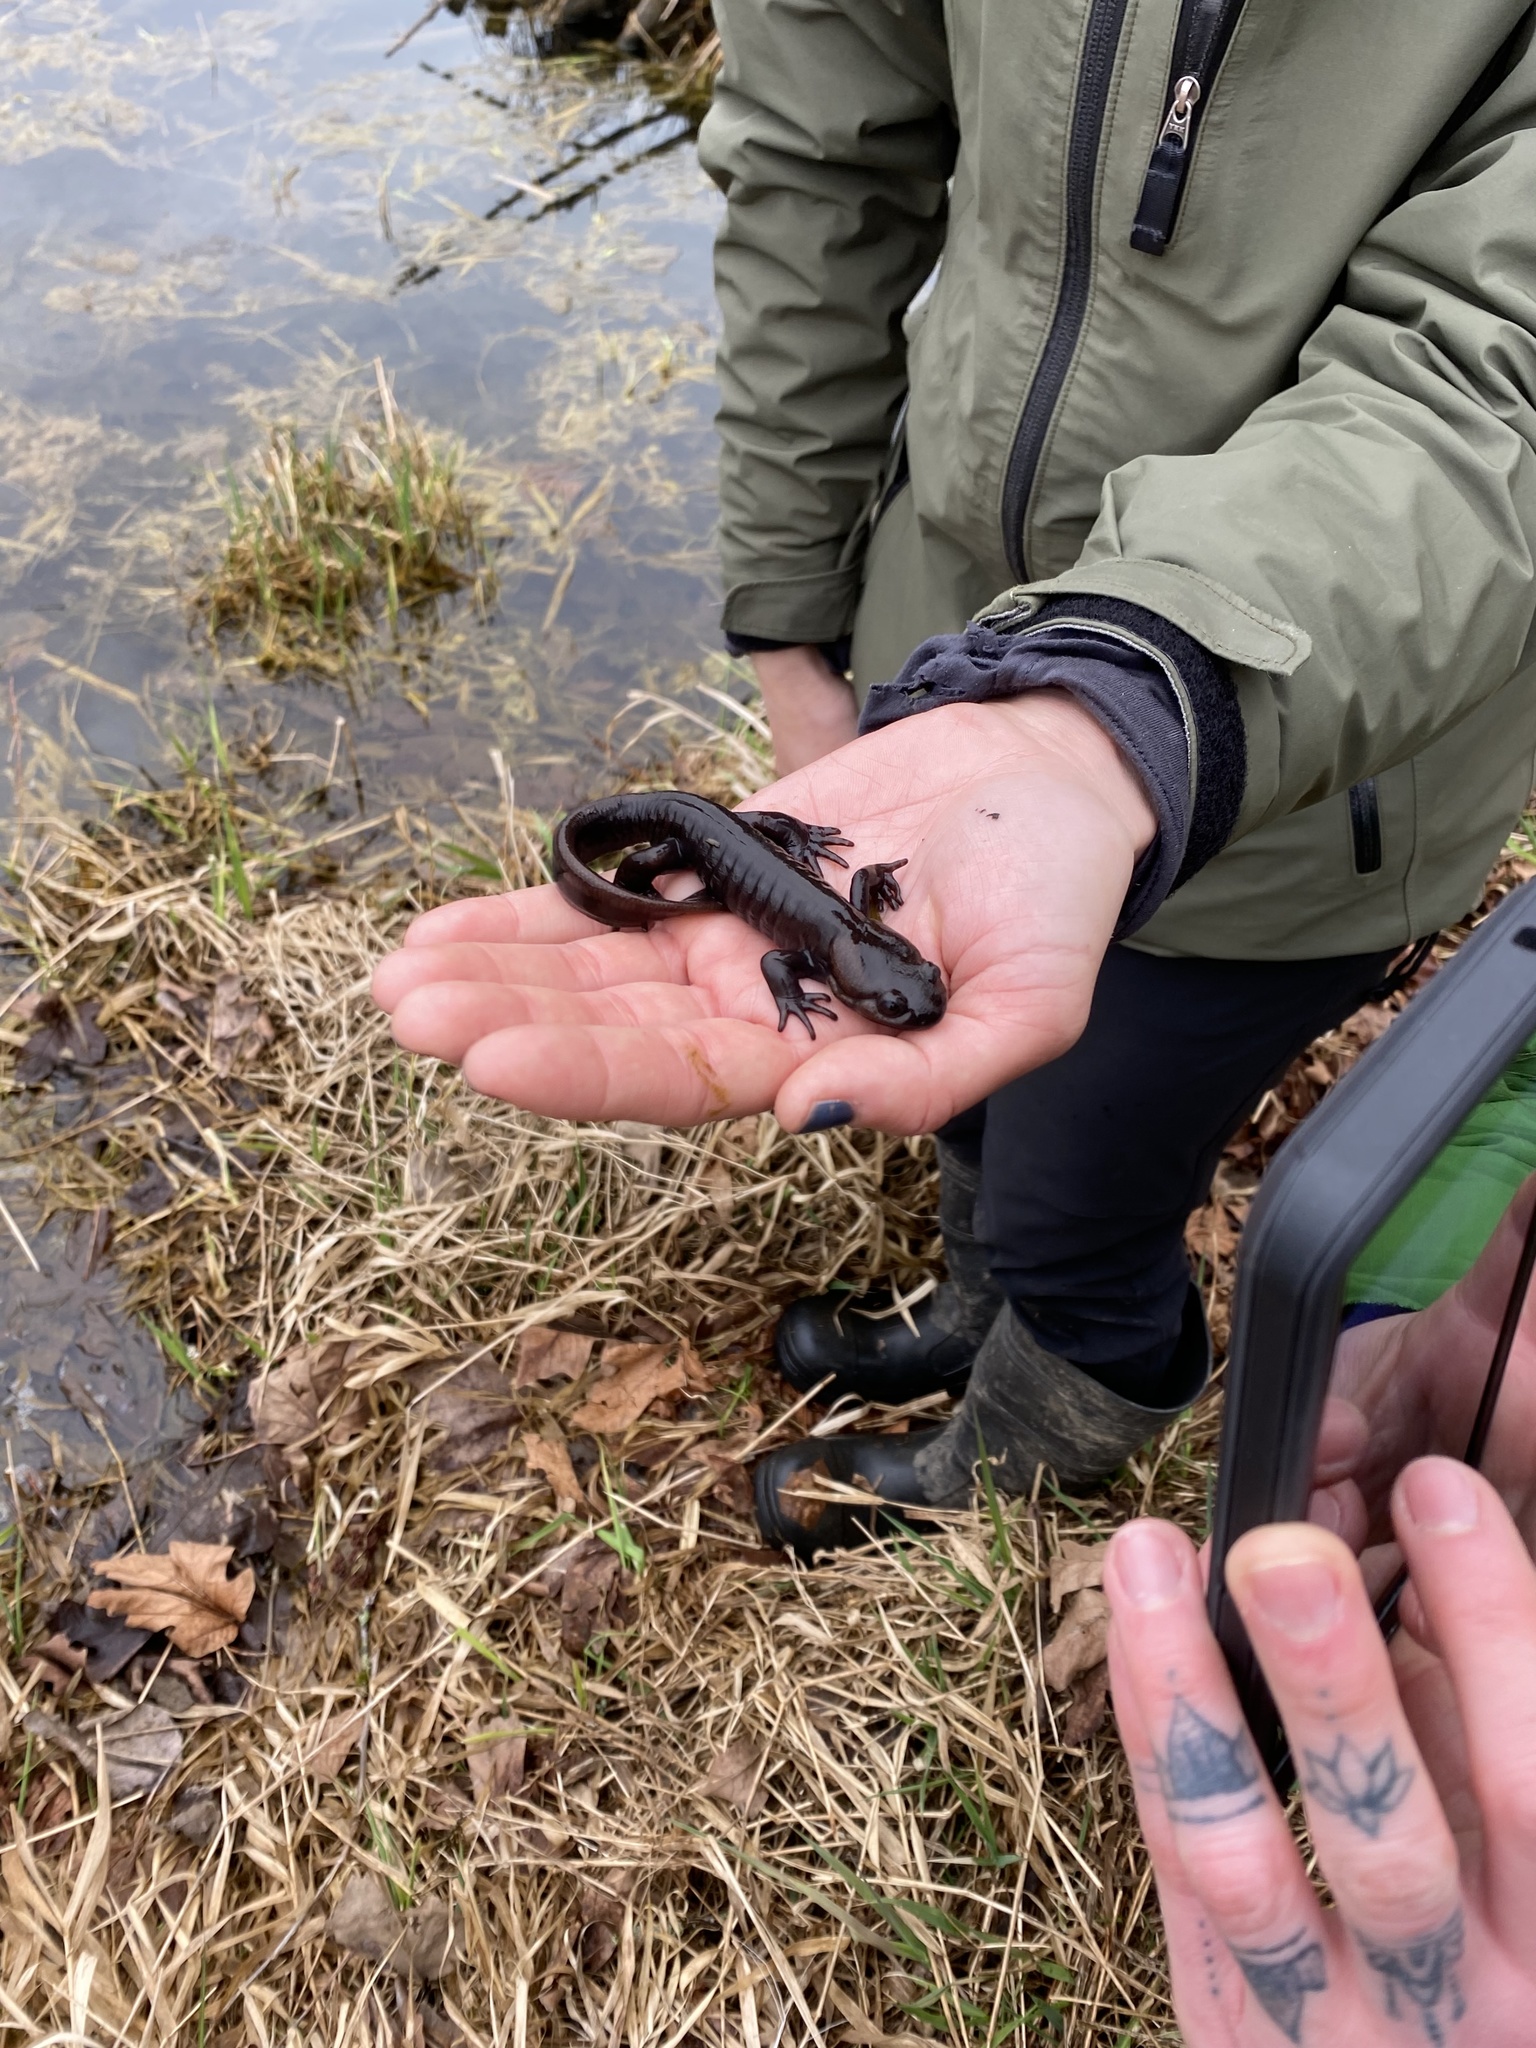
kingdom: Animalia
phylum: Chordata
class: Amphibia
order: Caudata
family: Ambystomatidae
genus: Ambystoma
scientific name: Ambystoma gracile
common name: Northwestern salamander
